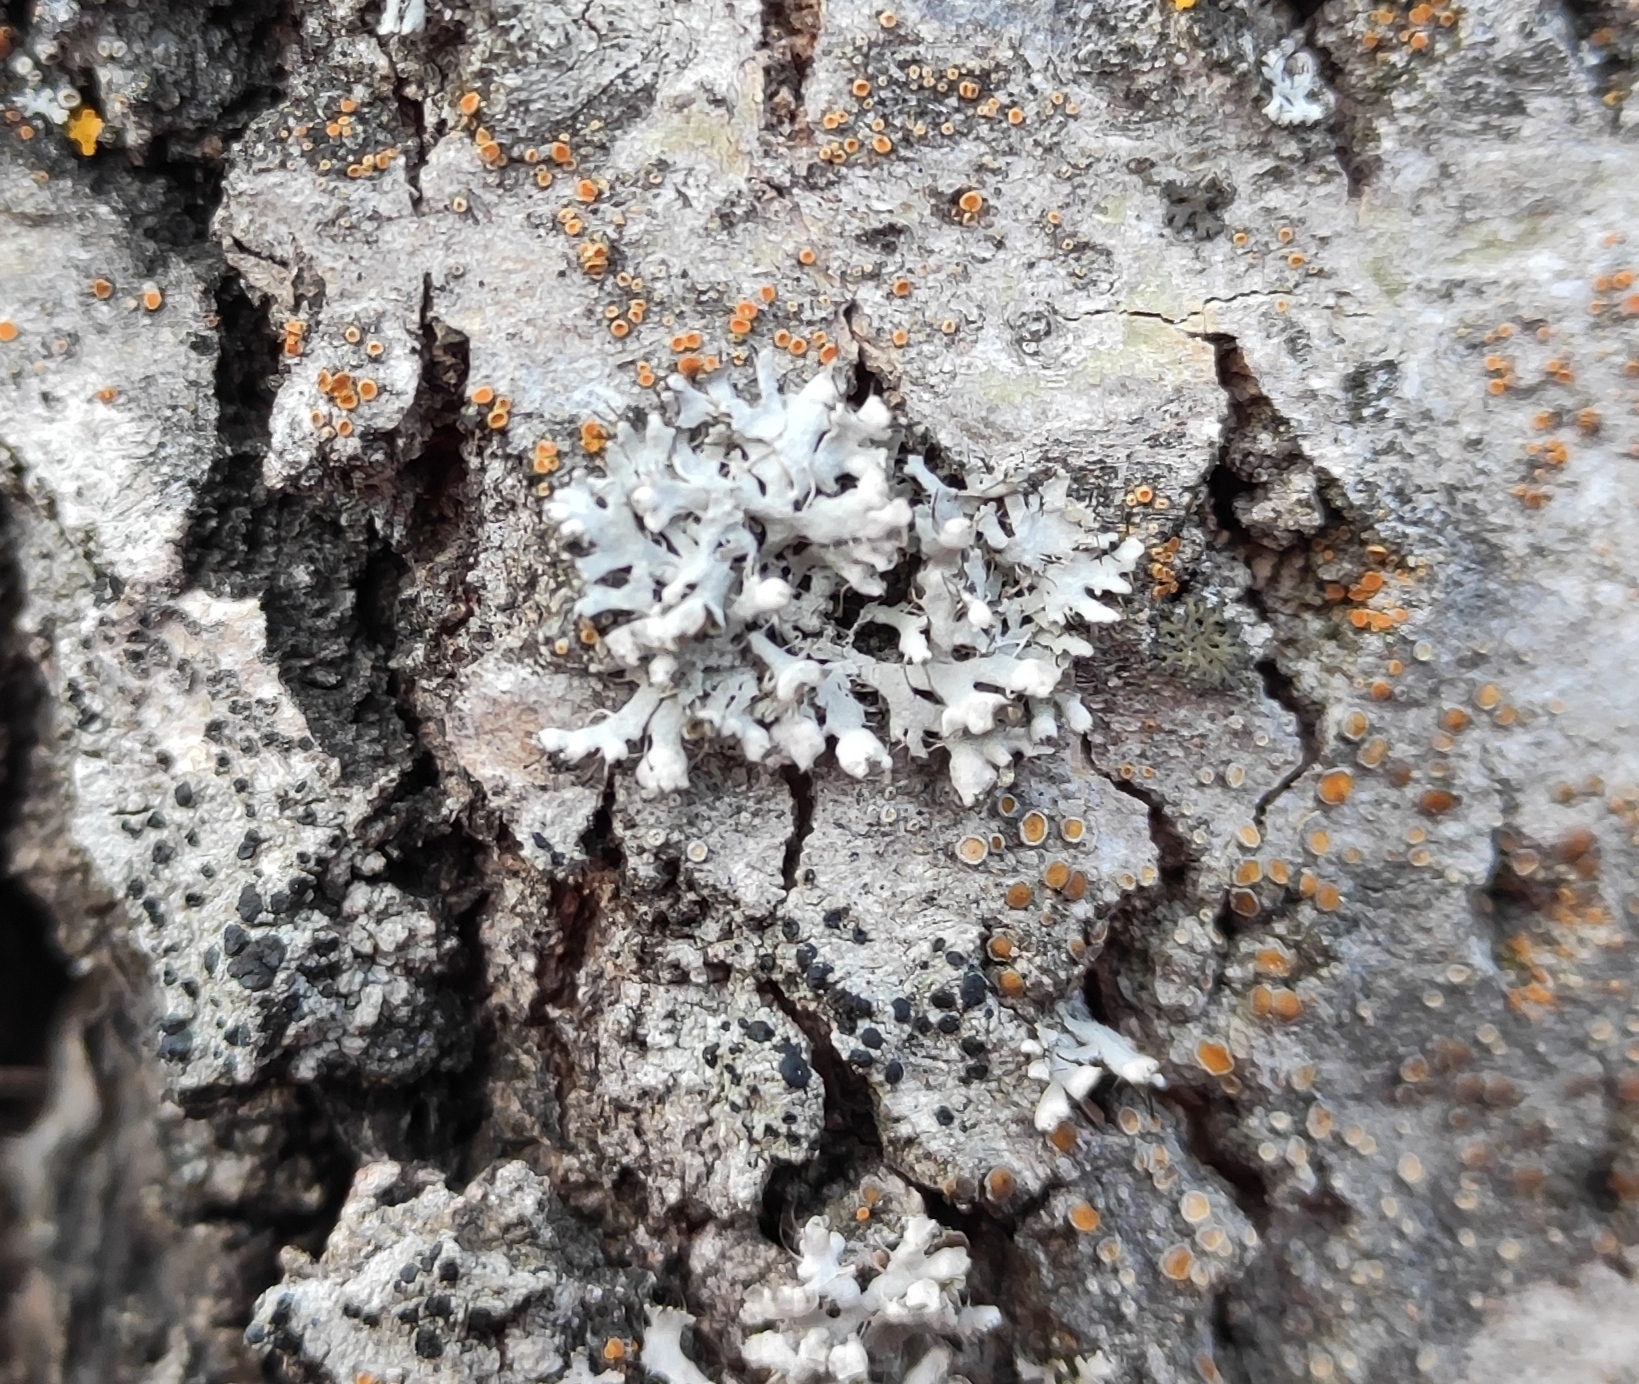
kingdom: Fungi
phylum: Ascomycota
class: Lecanoromycetes
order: Caliciales
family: Physciaceae
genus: Physcia
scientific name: Physcia adscendens
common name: Hooded rosette lichen
